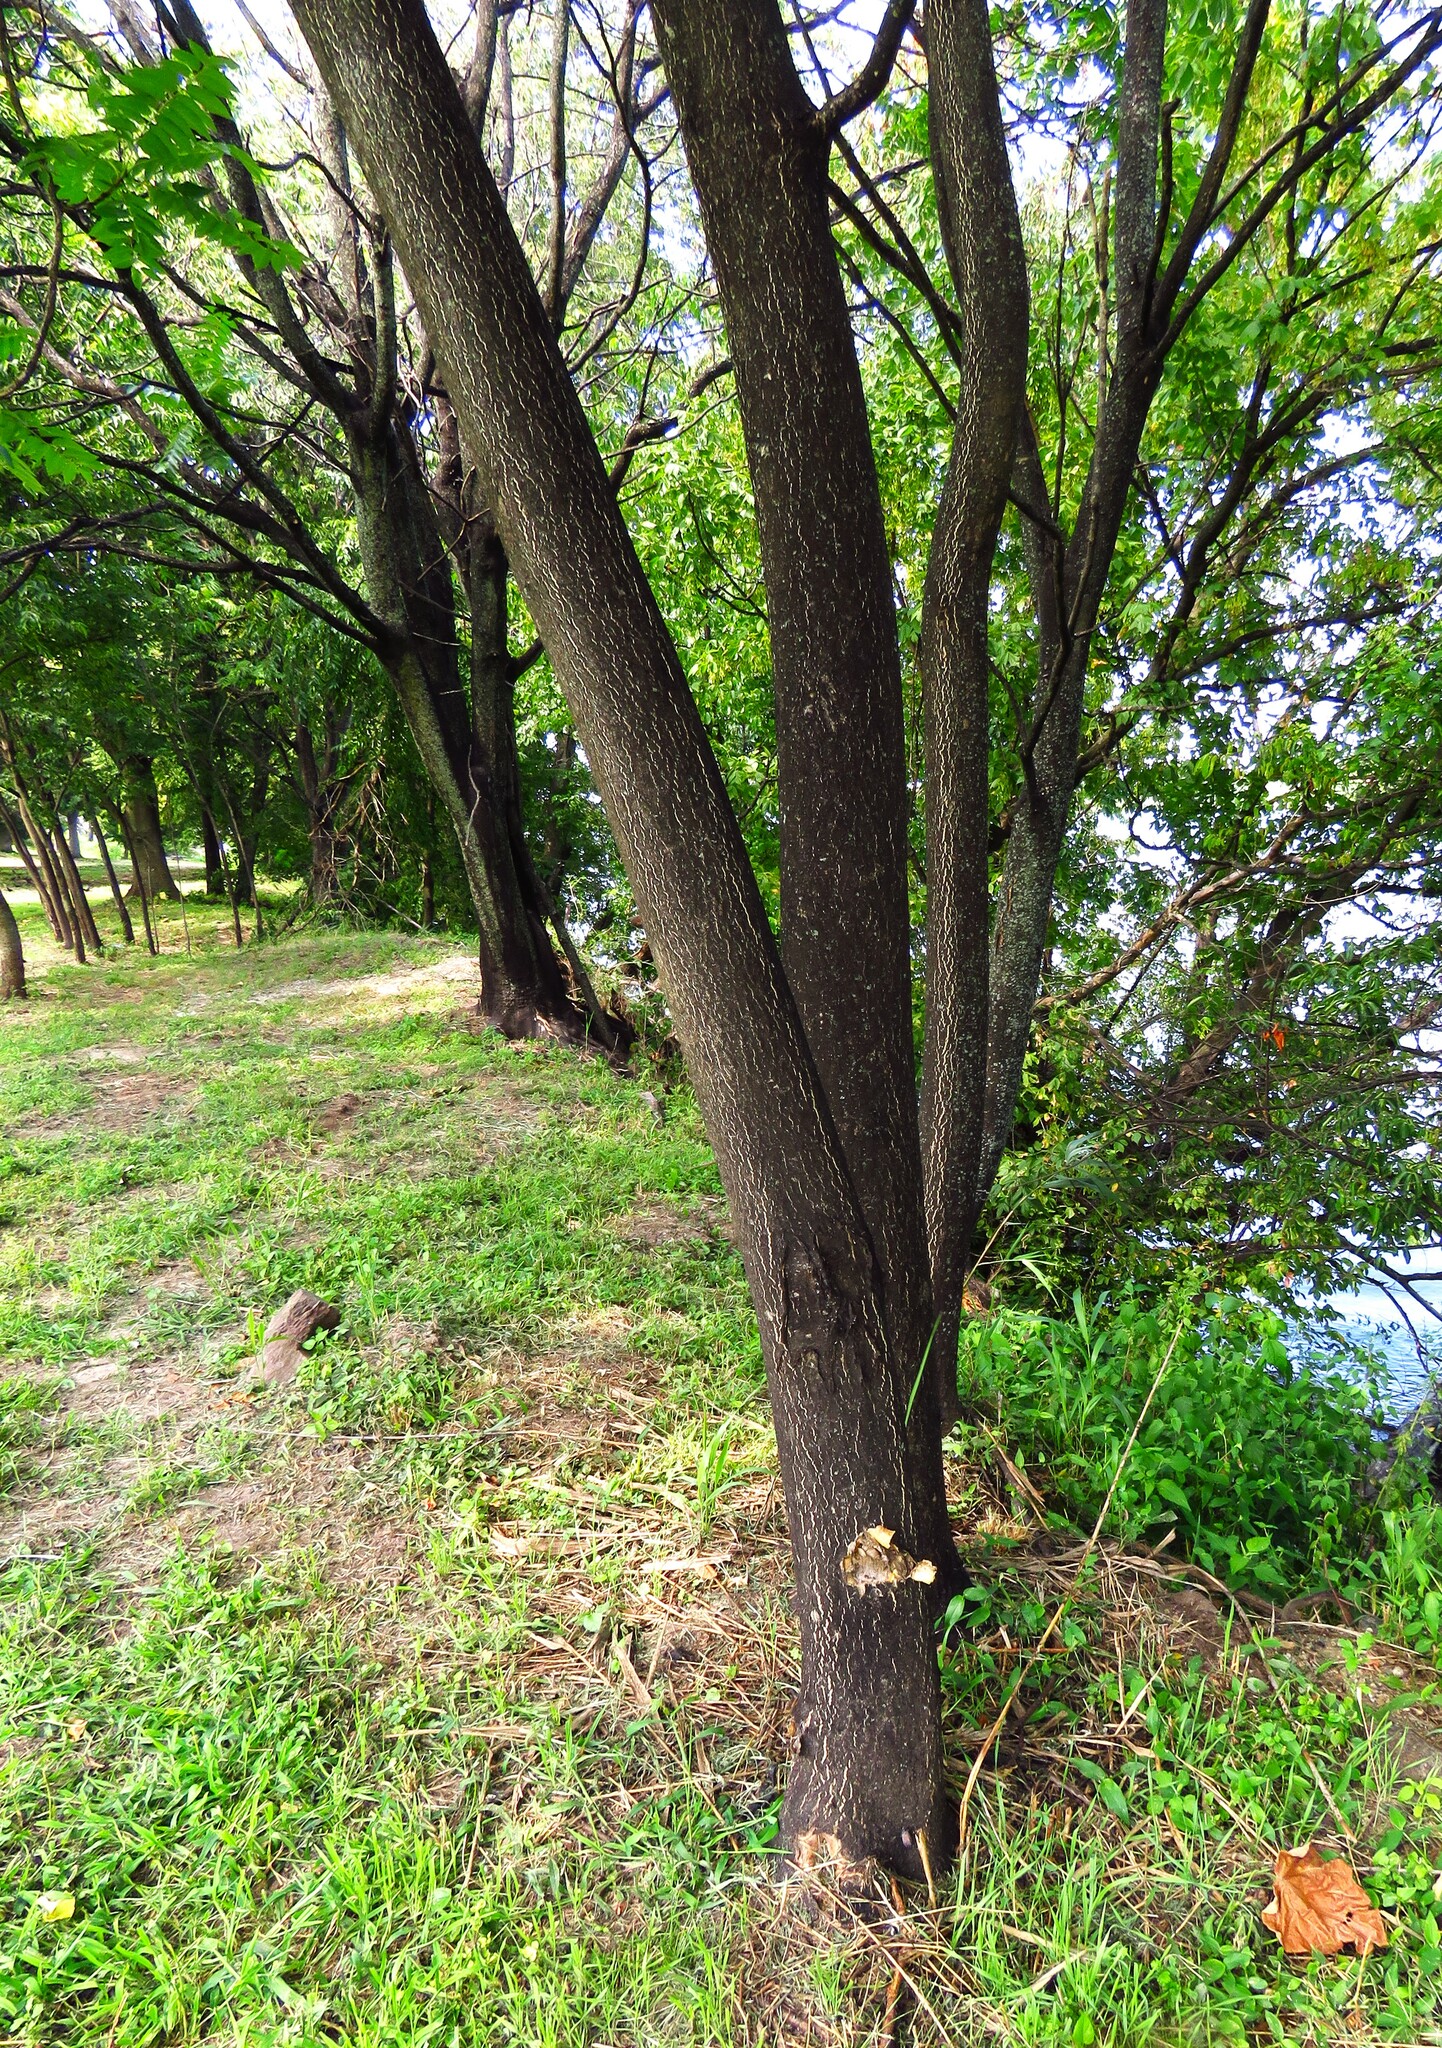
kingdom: Plantae
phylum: Tracheophyta
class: Magnoliopsida
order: Sapindales
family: Simaroubaceae
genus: Ailanthus
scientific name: Ailanthus altissima
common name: Tree-of-heaven
